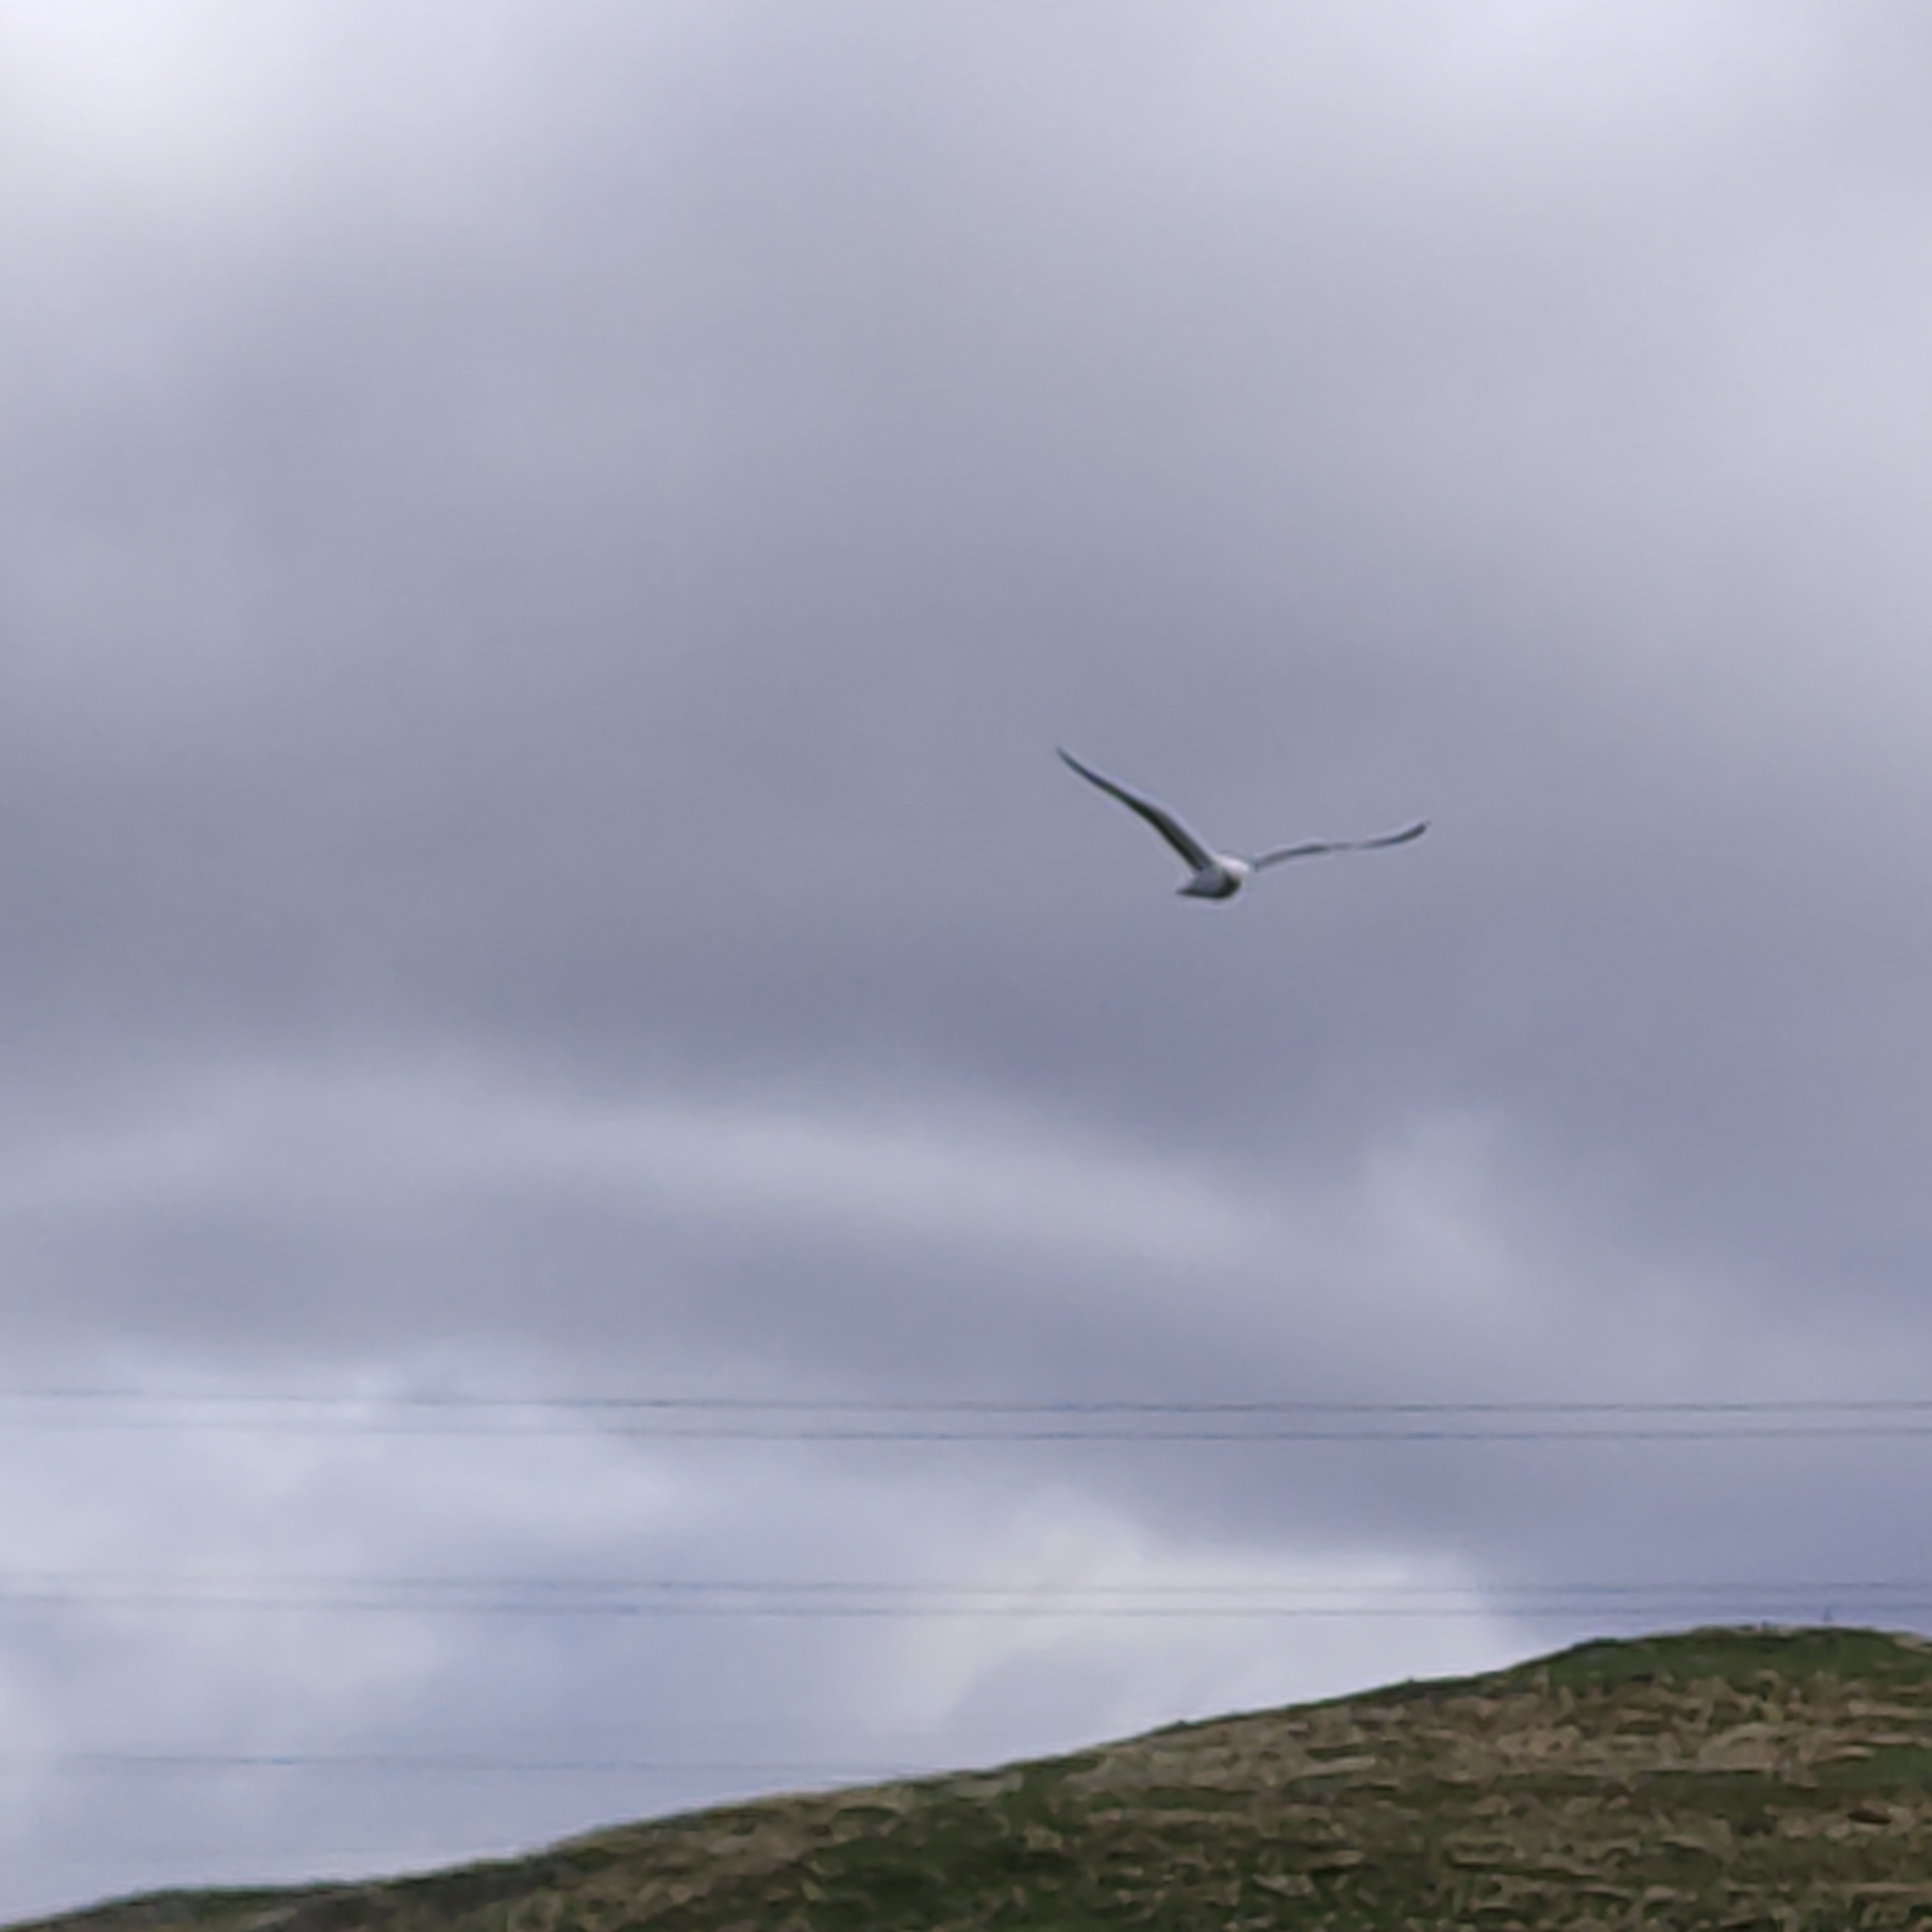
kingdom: Animalia
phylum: Chordata
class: Aves
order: Charadriiformes
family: Laridae
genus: Larus
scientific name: Larus dominicanus
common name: Kelp gull
